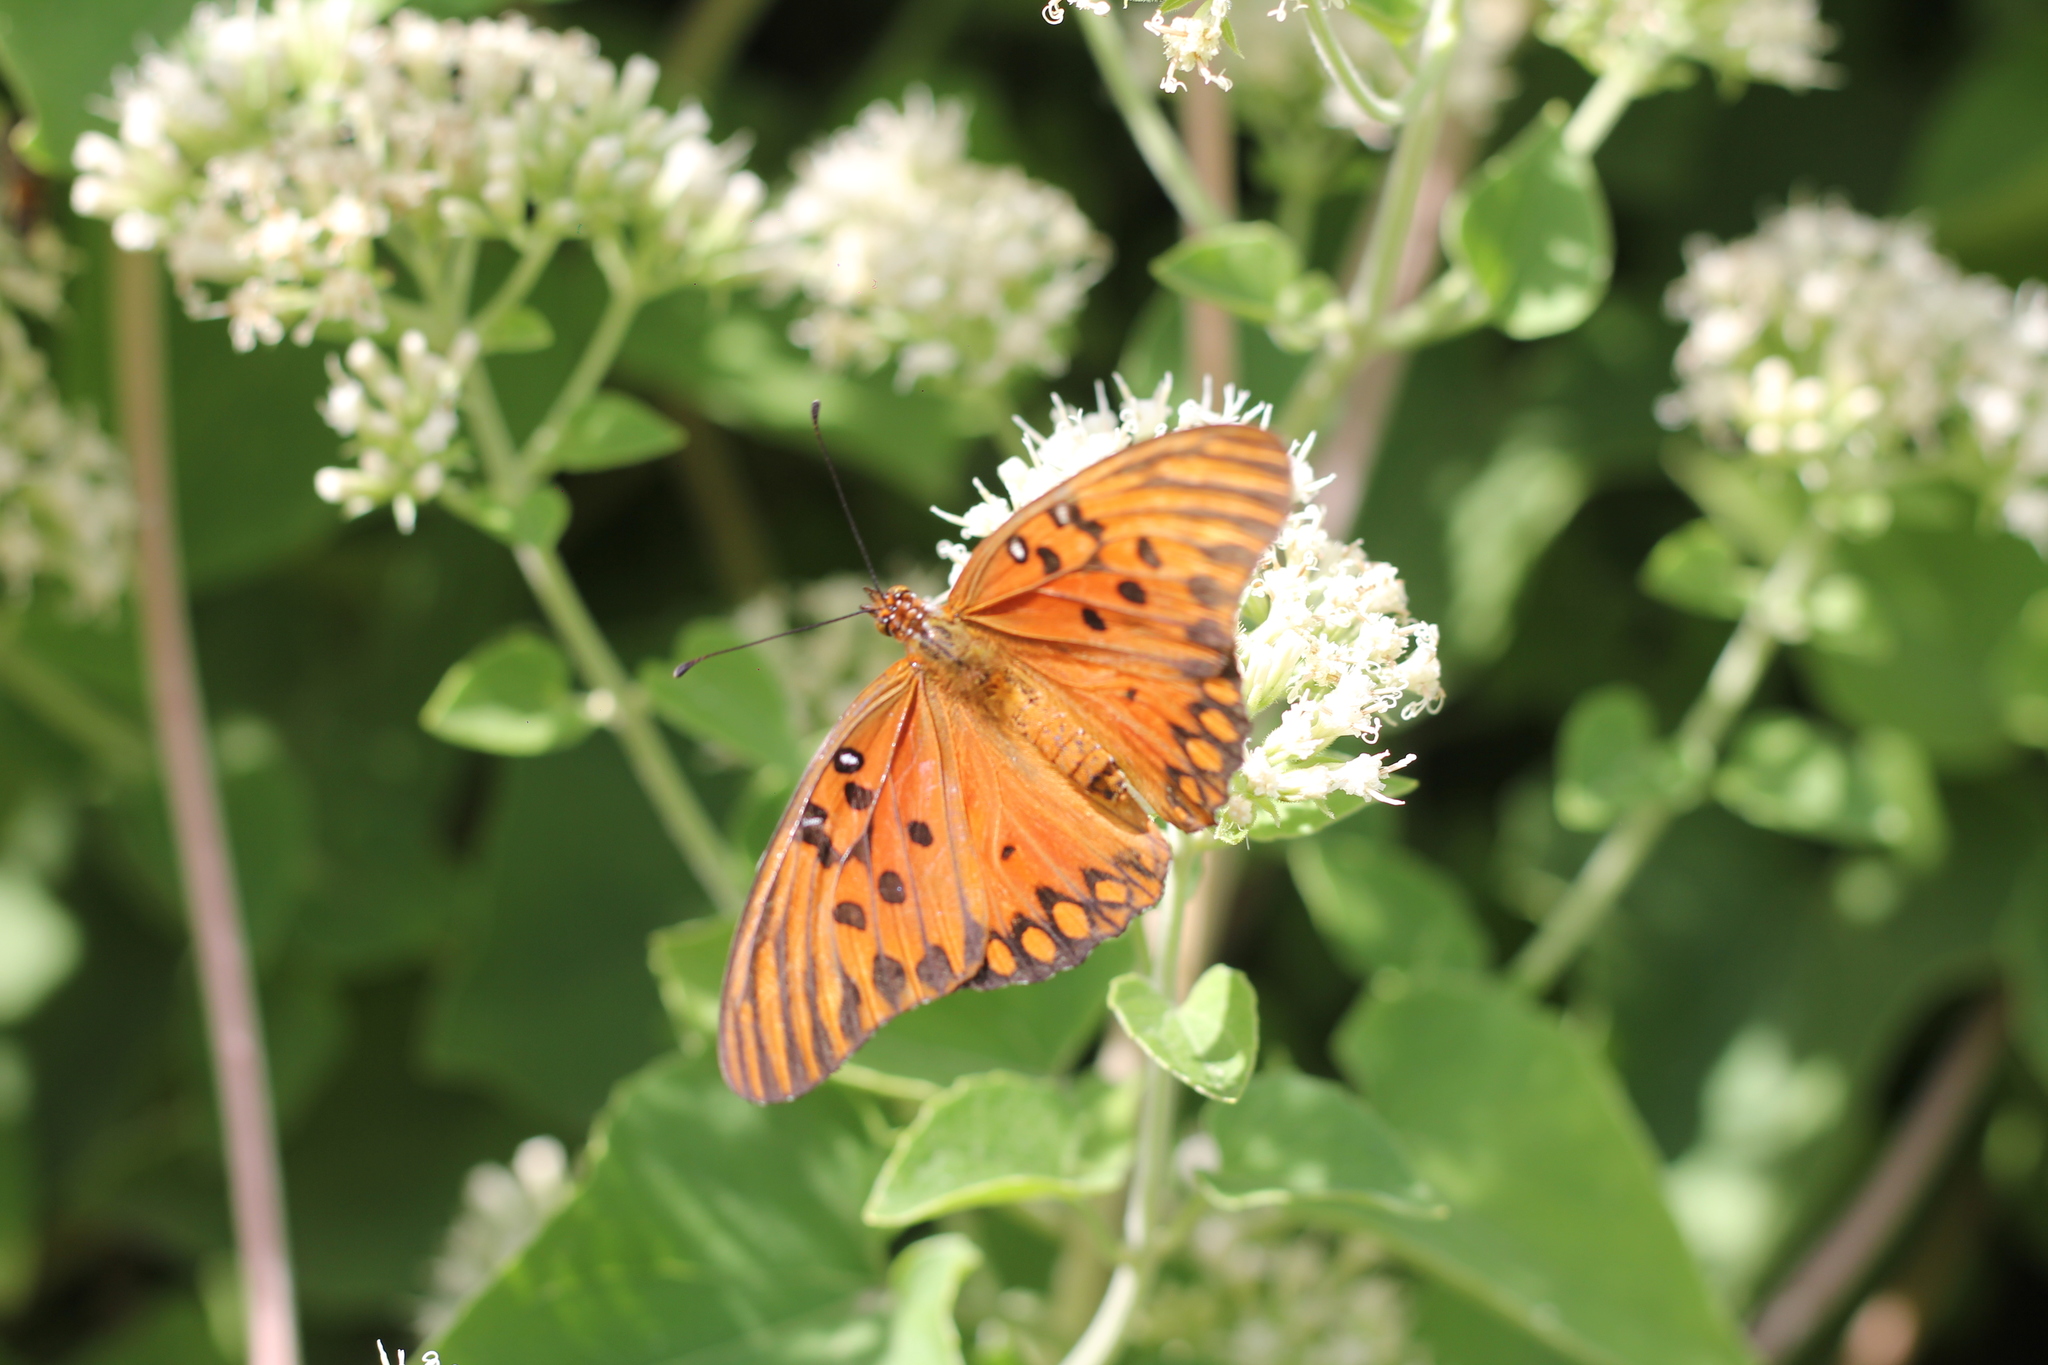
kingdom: Animalia
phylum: Arthropoda
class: Insecta
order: Lepidoptera
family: Nymphalidae
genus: Dione
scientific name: Dione vanillae
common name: Gulf fritillary
